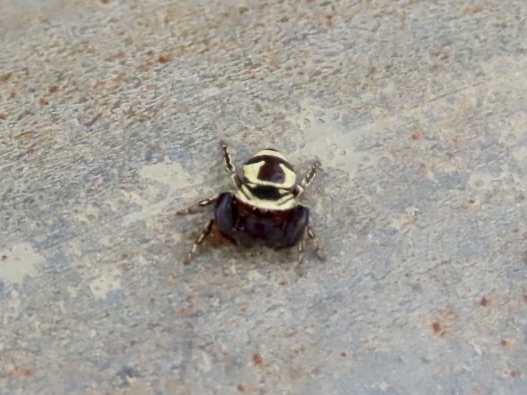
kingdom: Animalia
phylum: Arthropoda
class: Arachnida
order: Araneae
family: Salticidae
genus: Rhene
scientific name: Rhene flavicomans
